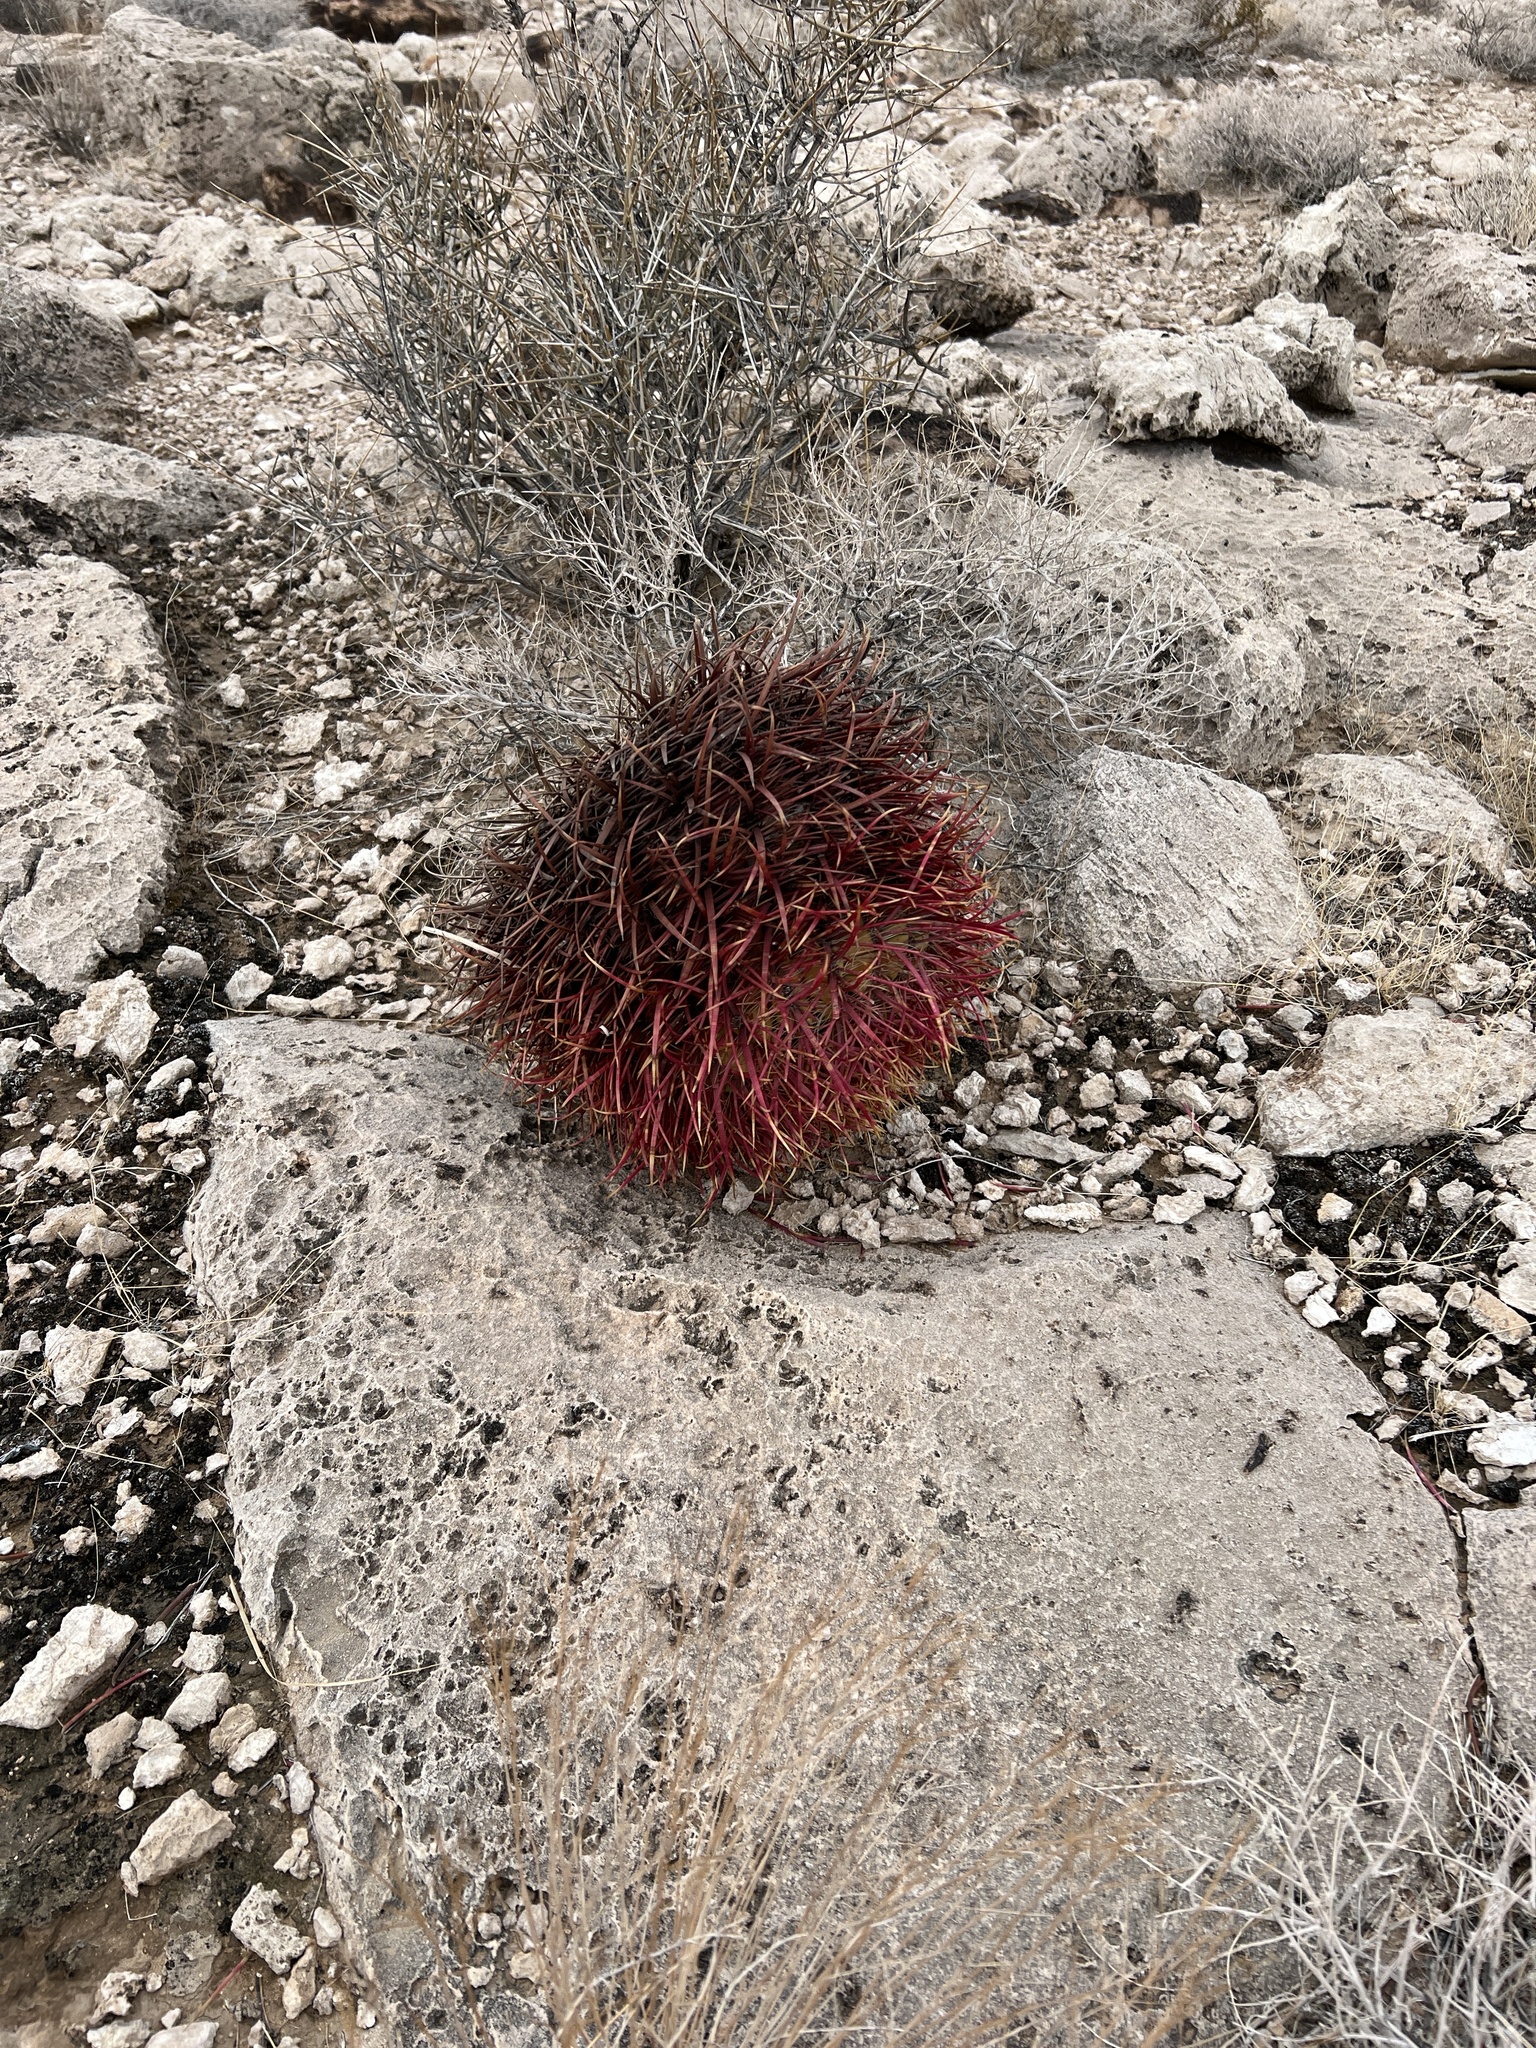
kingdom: Plantae
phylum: Tracheophyta
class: Magnoliopsida
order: Caryophyllales
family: Cactaceae
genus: Ferocactus
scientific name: Ferocactus cylindraceus
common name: California barrel cactus
